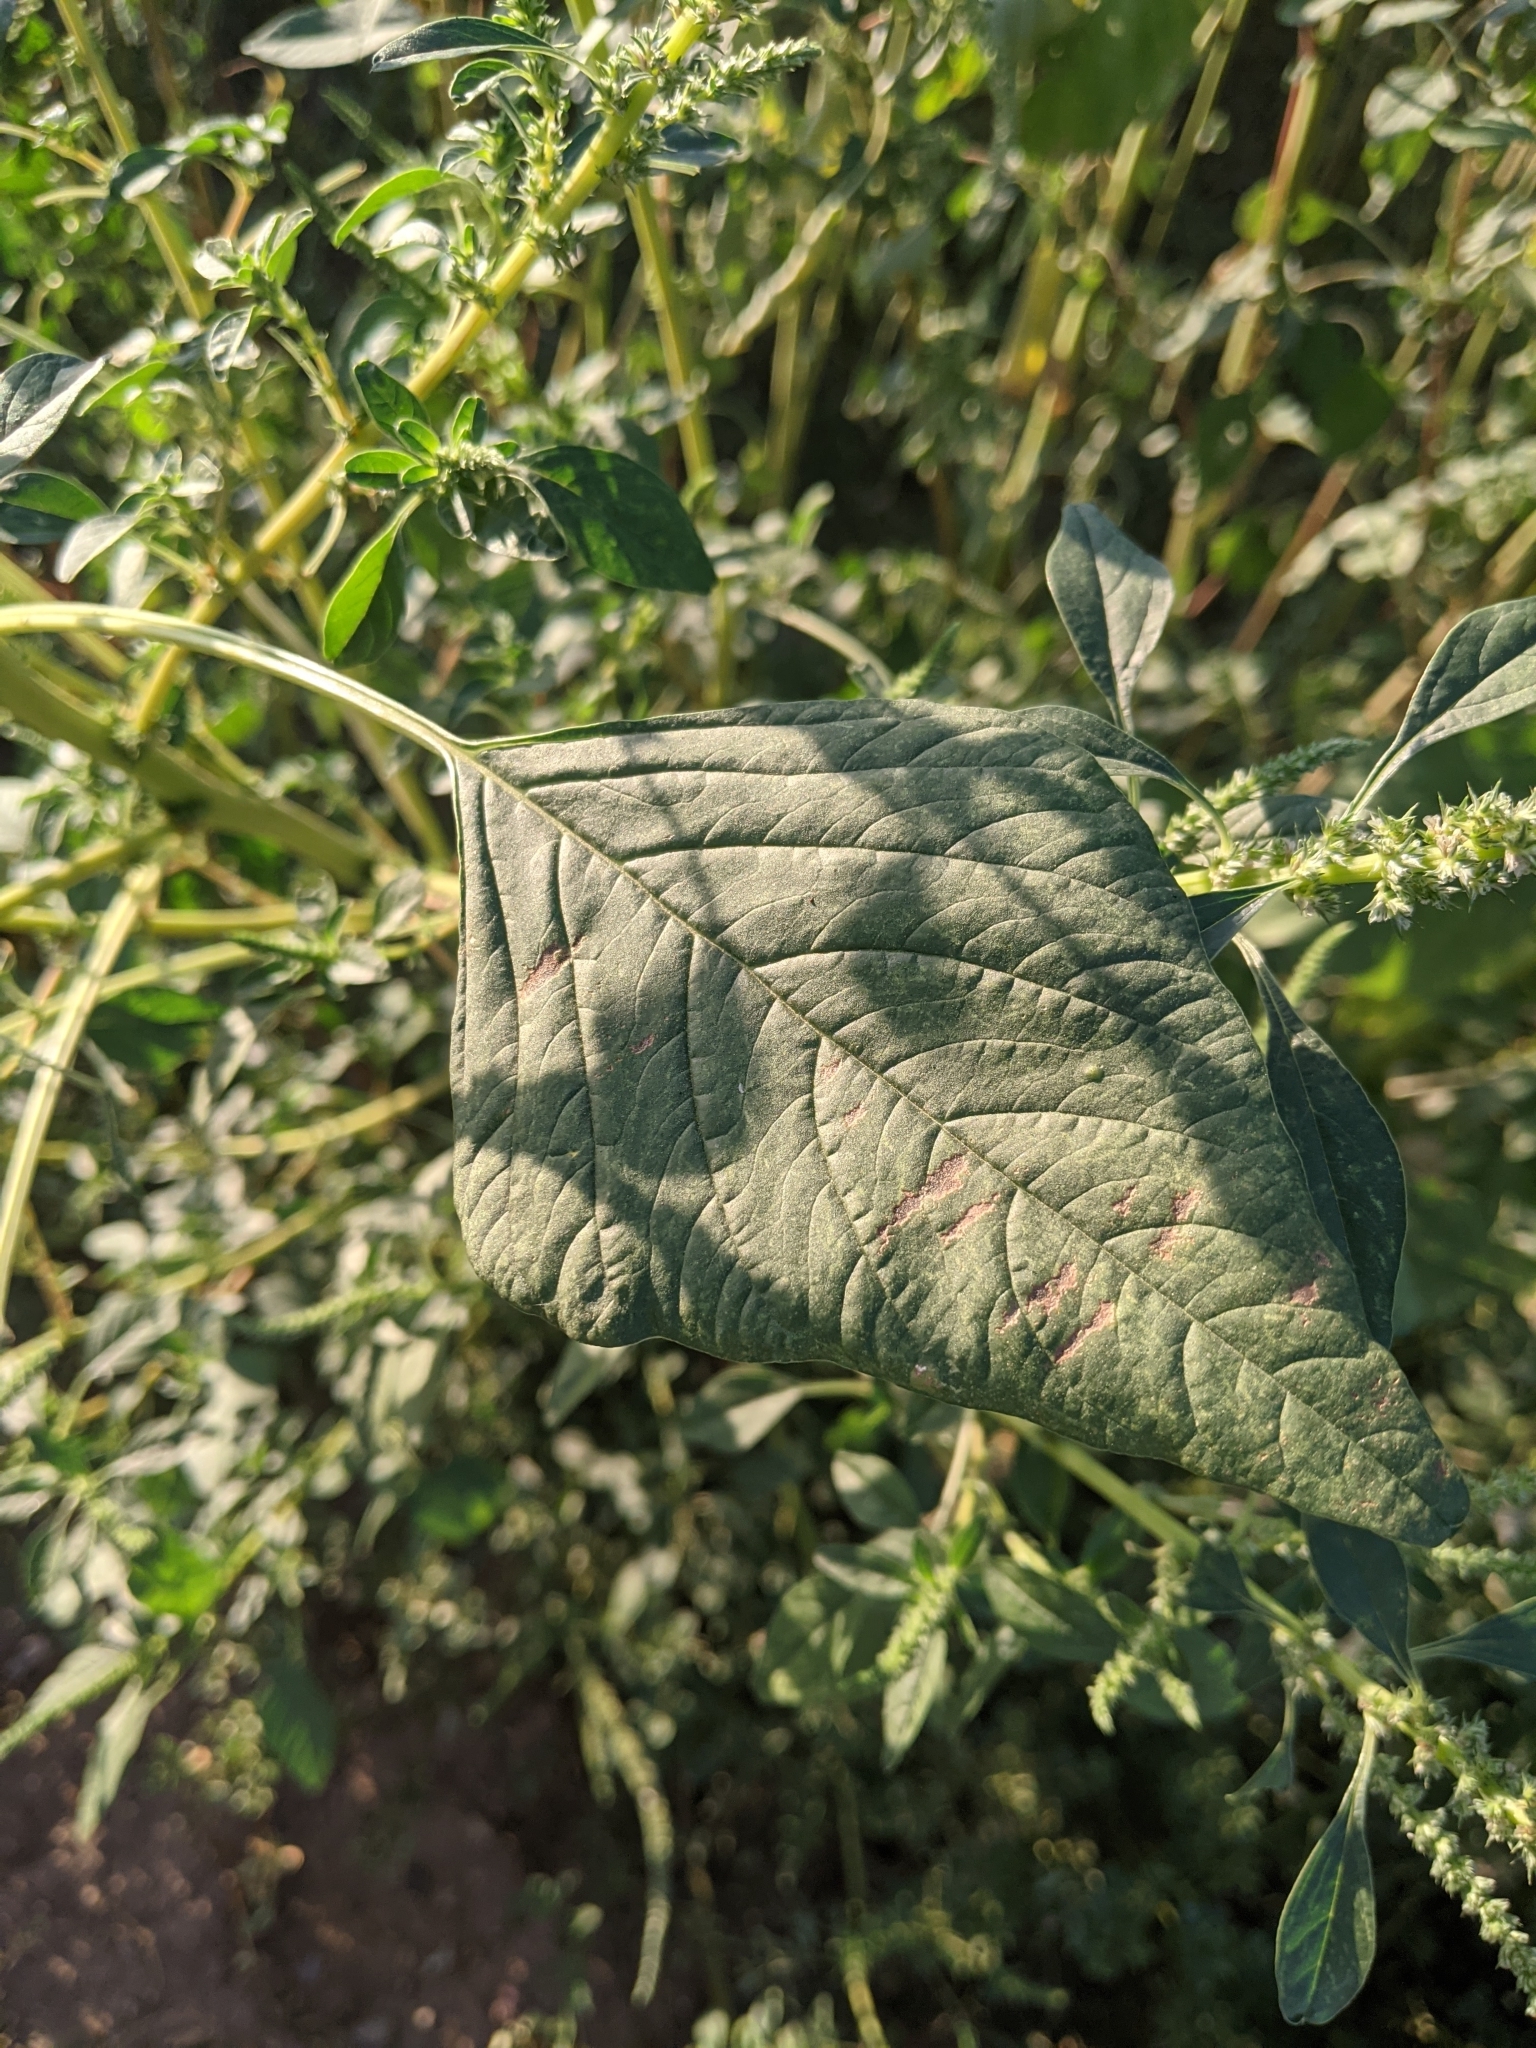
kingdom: Plantae
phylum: Tracheophyta
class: Magnoliopsida
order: Caryophyllales
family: Amaranthaceae
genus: Amaranthus
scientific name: Amaranthus palmeri
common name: Dioecious amaranth
